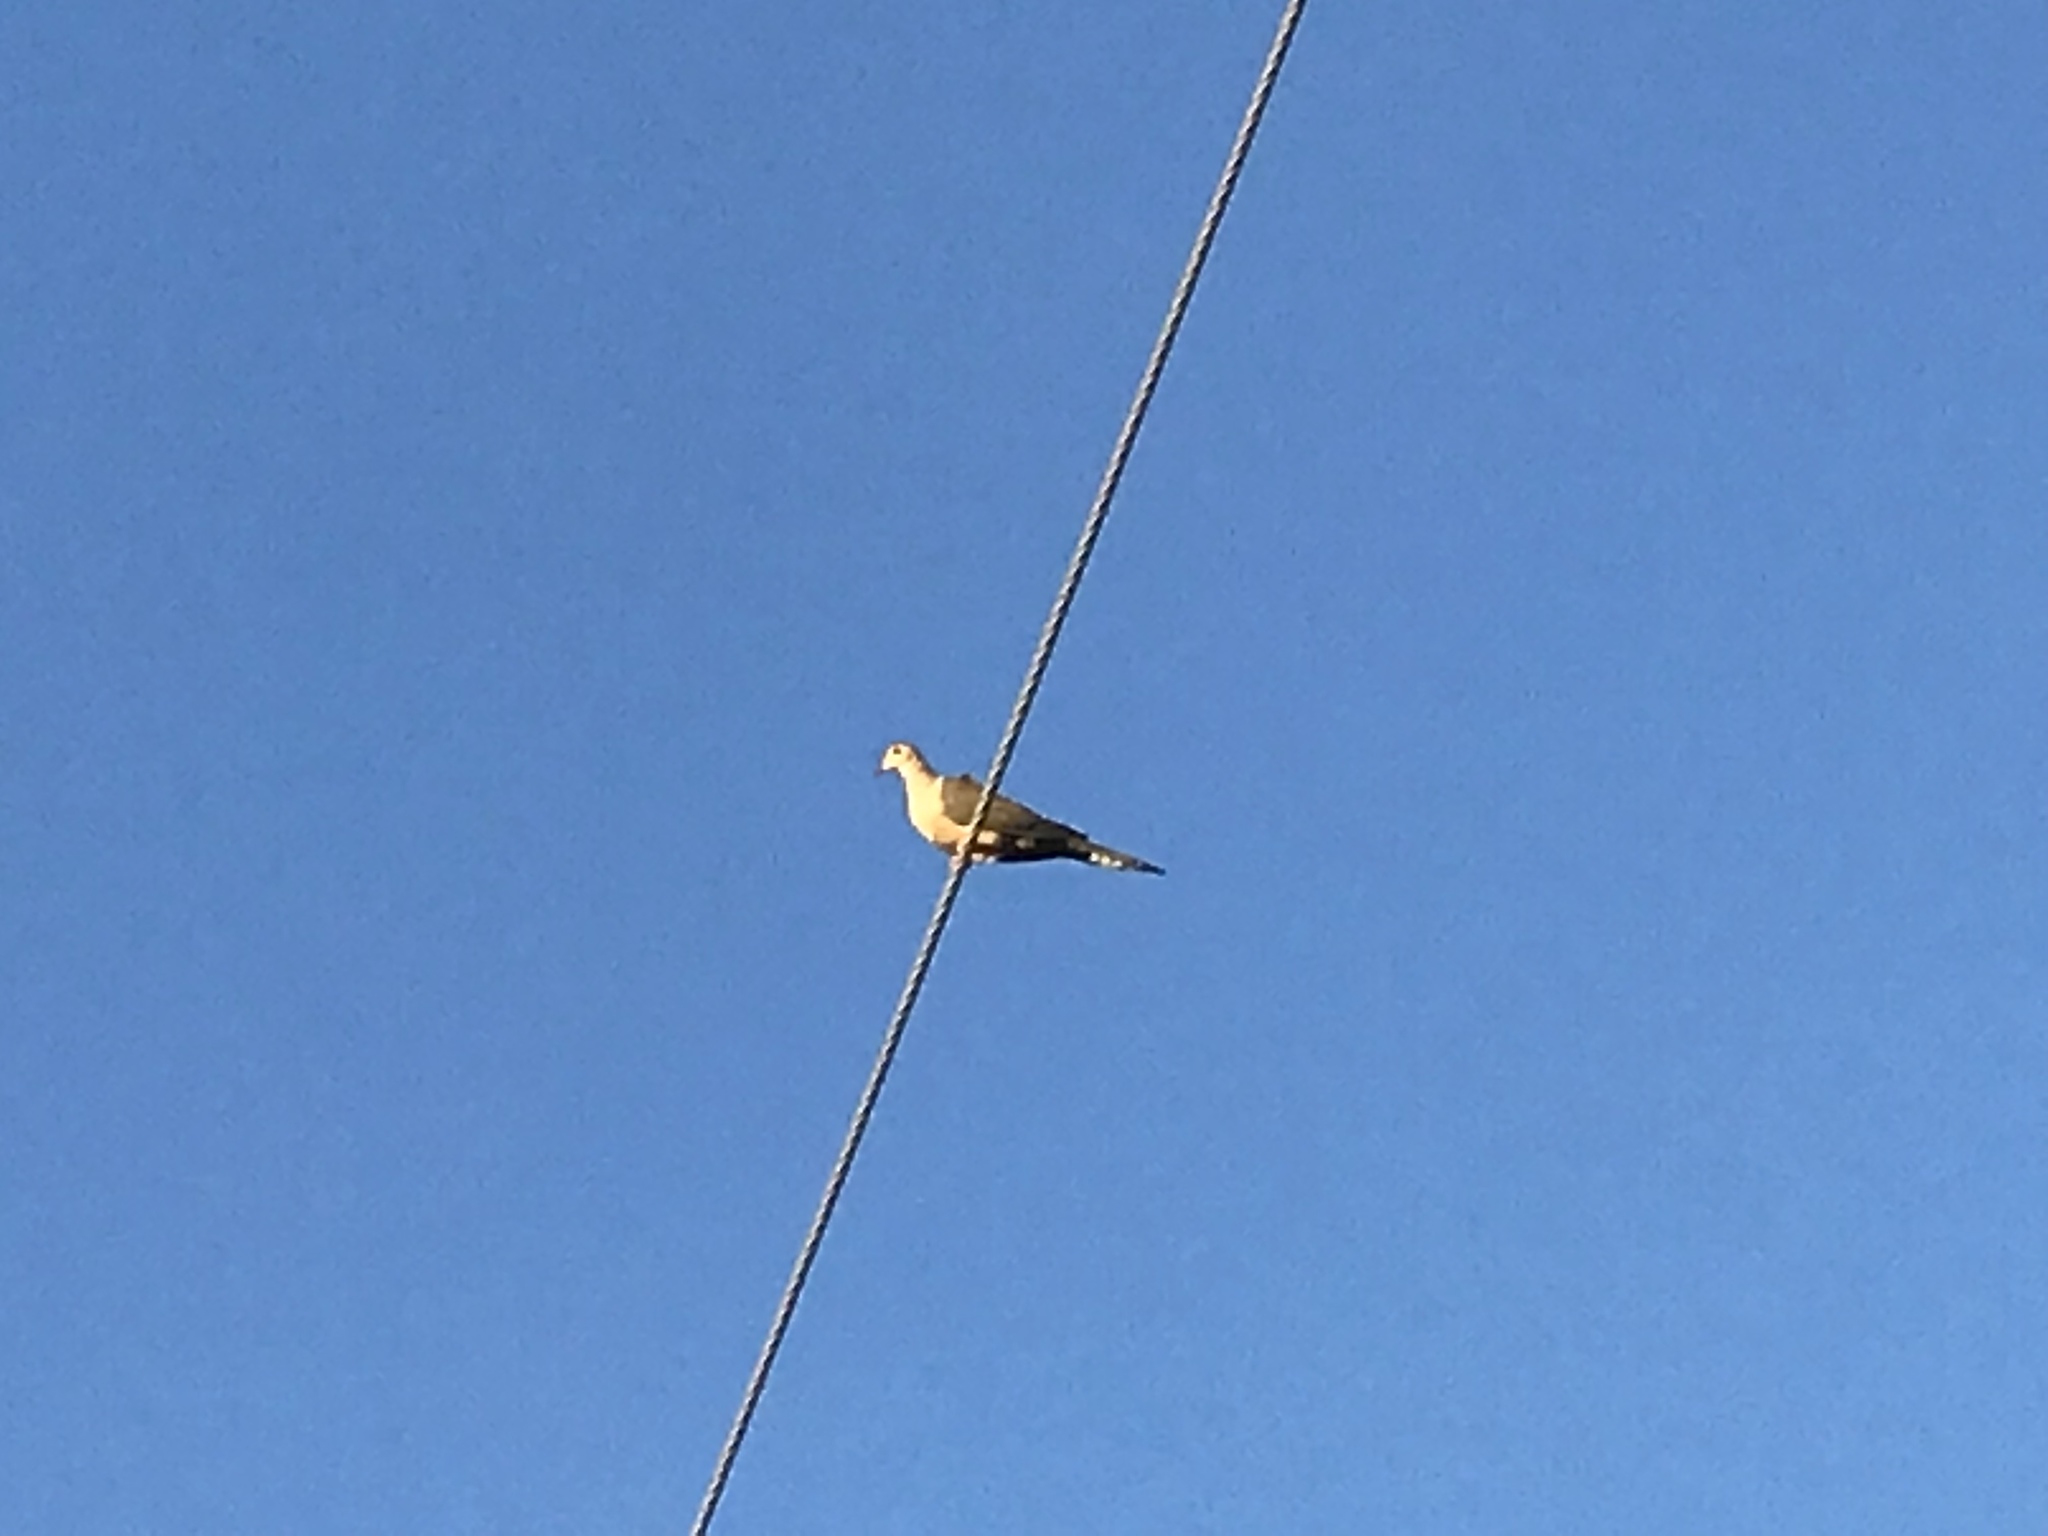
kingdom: Animalia
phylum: Chordata
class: Aves
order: Columbiformes
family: Columbidae
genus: Zenaida
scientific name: Zenaida macroura
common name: Mourning dove
